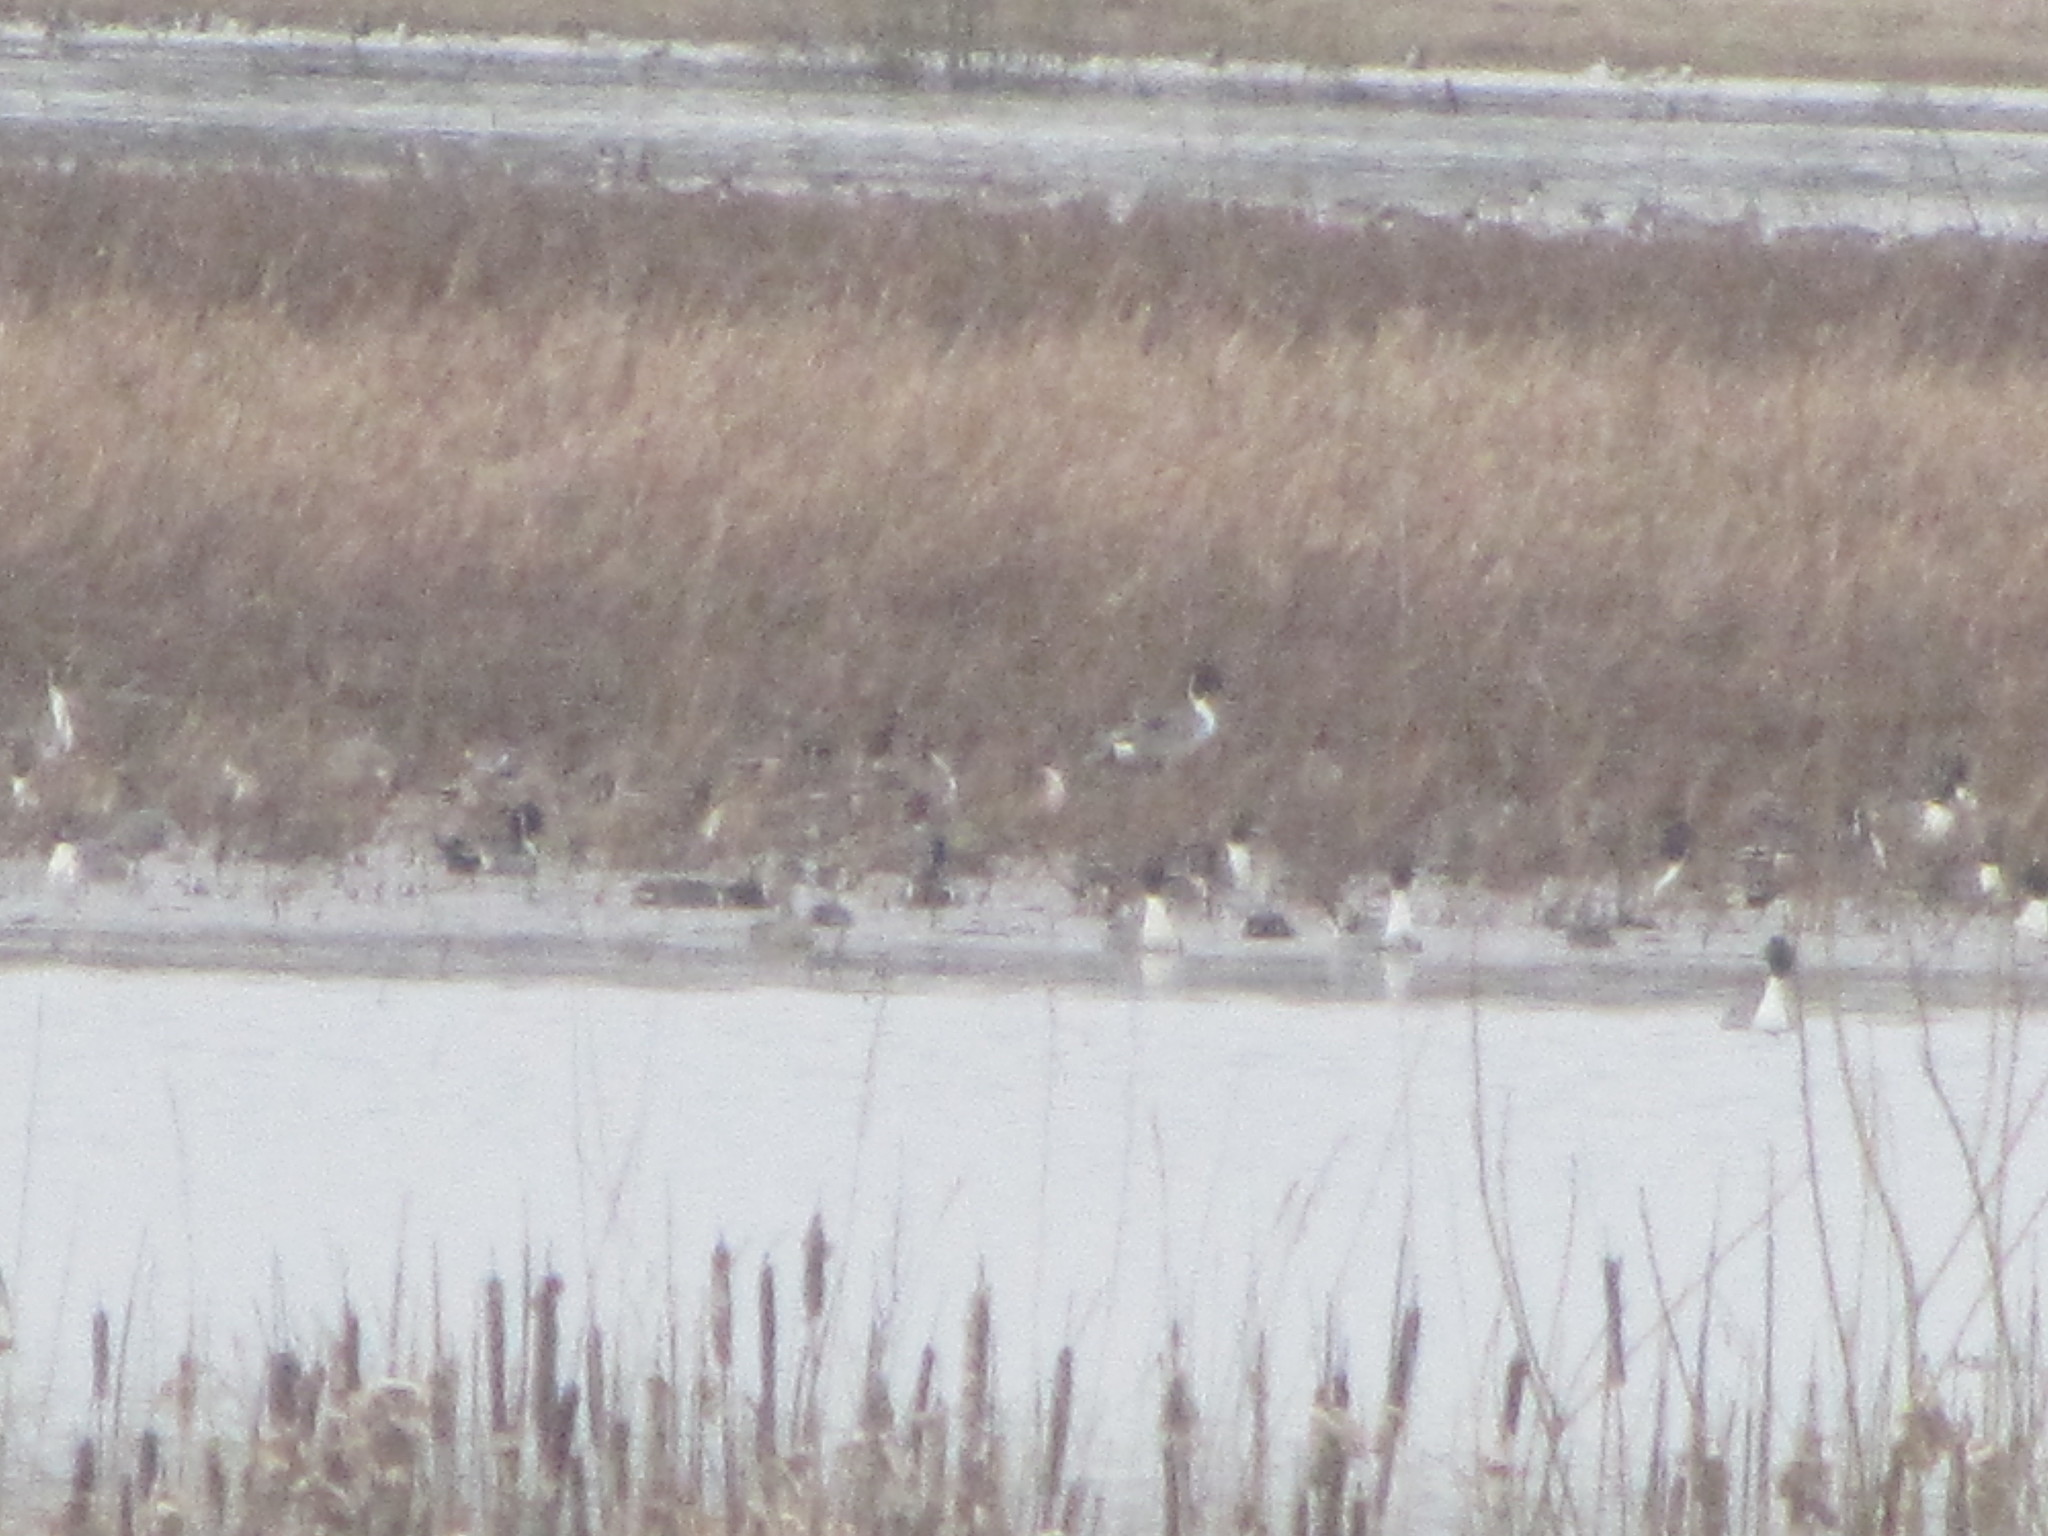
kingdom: Animalia
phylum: Chordata
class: Aves
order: Anseriformes
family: Anatidae
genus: Anas
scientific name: Anas acuta
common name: Northern pintail
